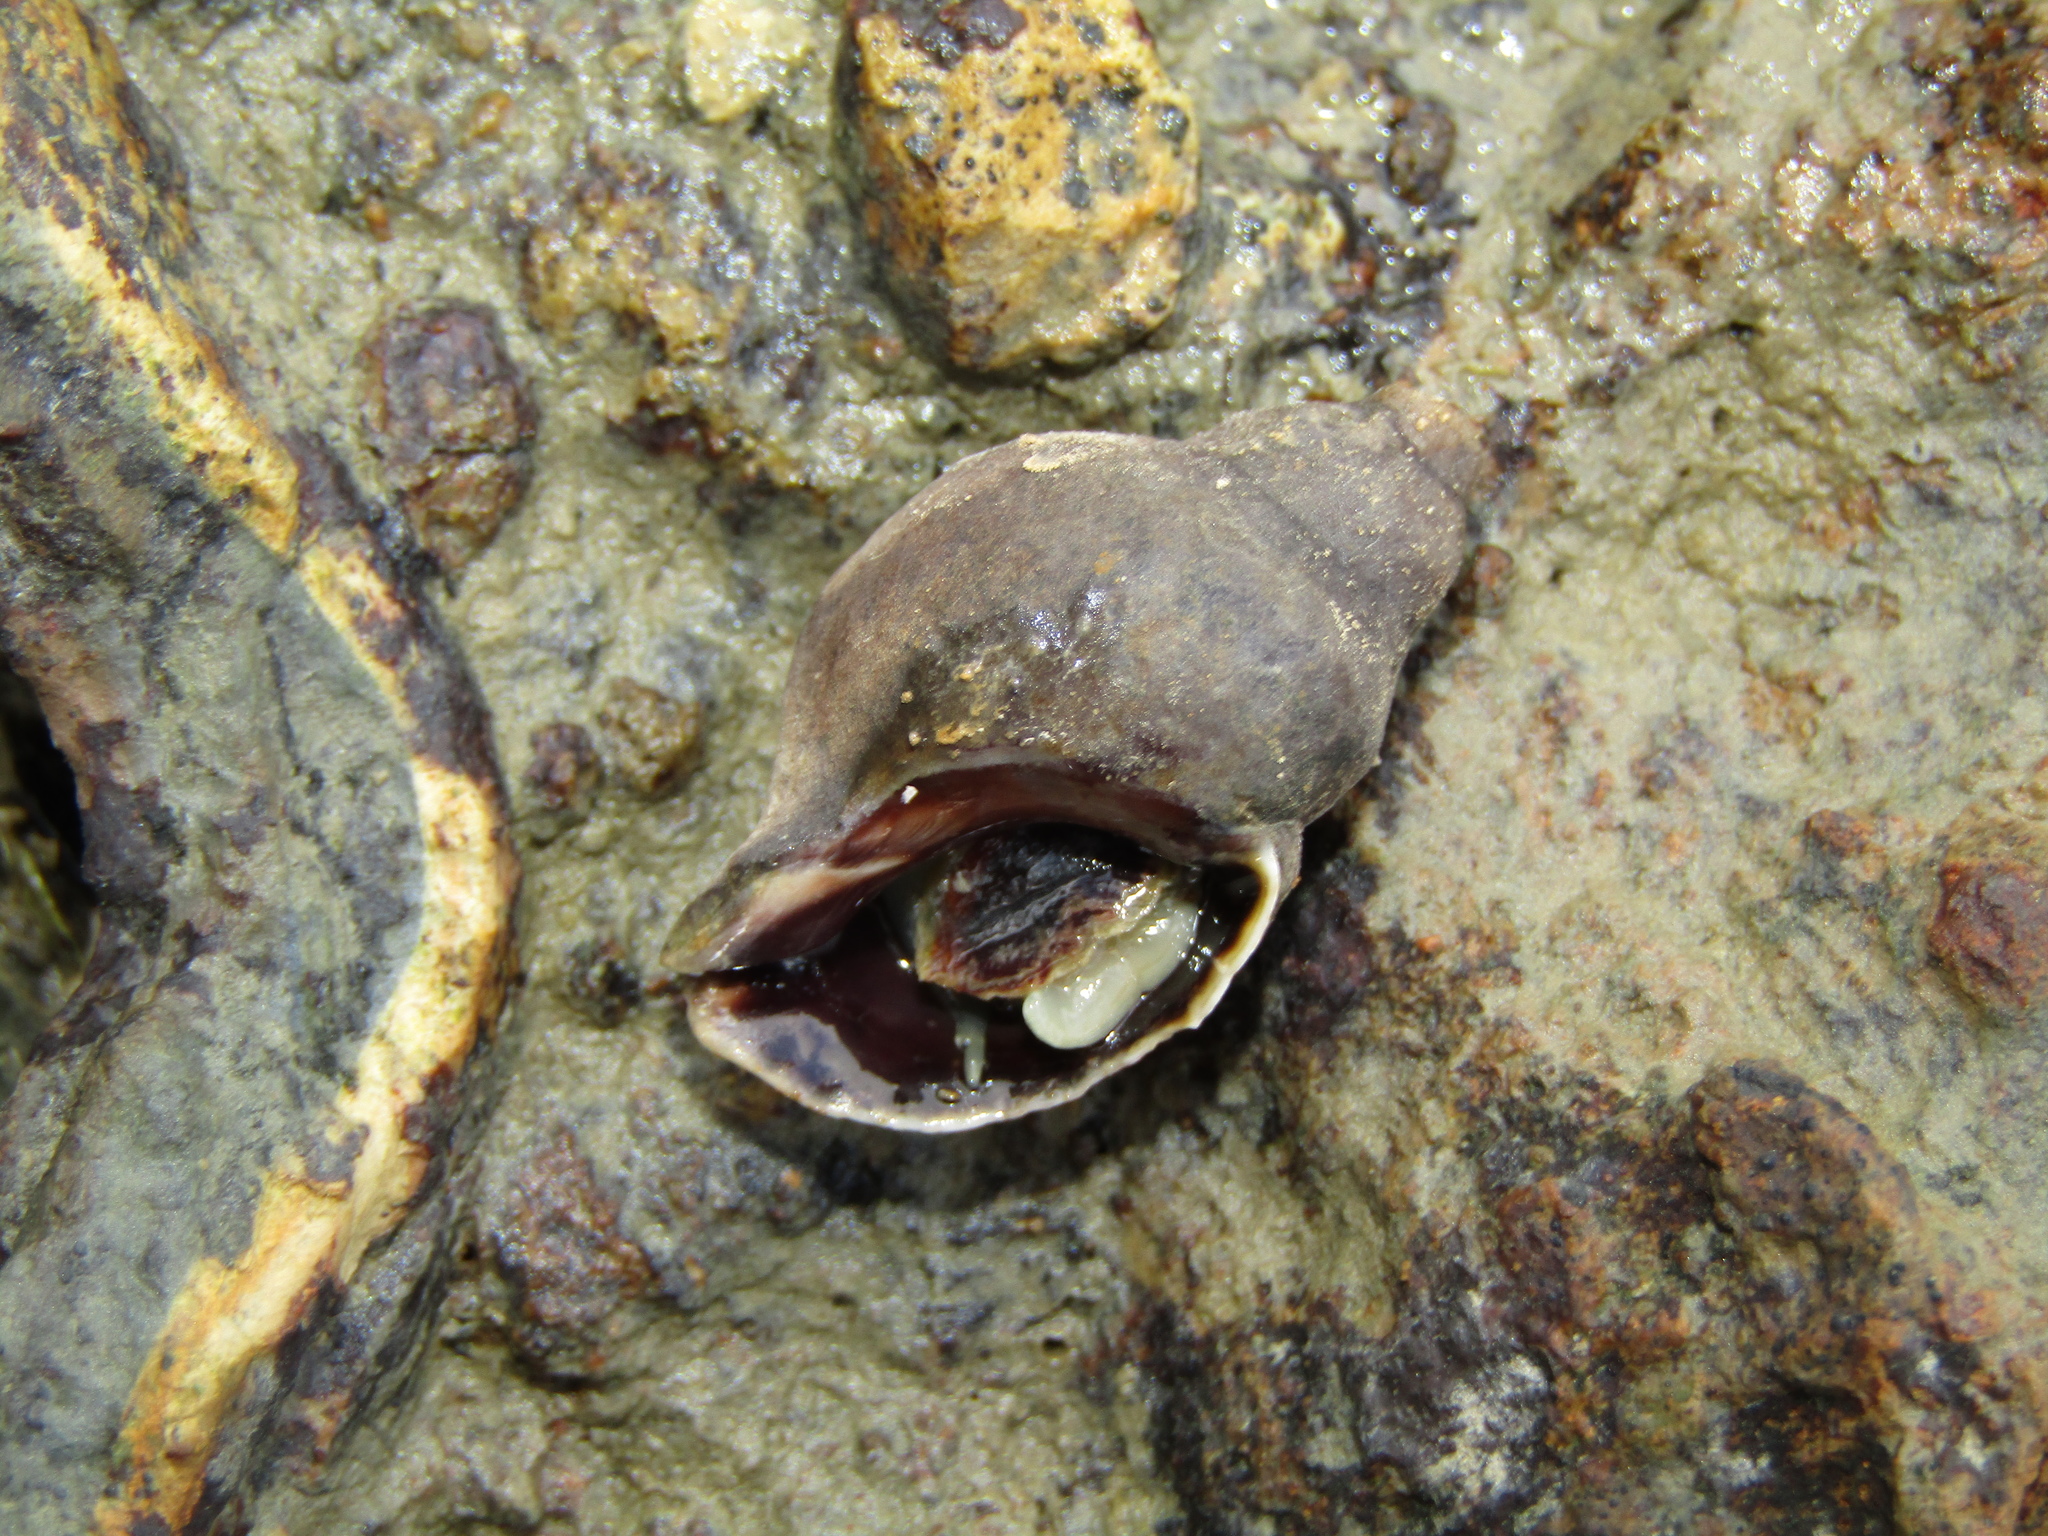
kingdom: Animalia
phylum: Mollusca
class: Gastropoda
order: Neogastropoda
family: Muricidae
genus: Haustrum
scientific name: Haustrum albomarginatum
